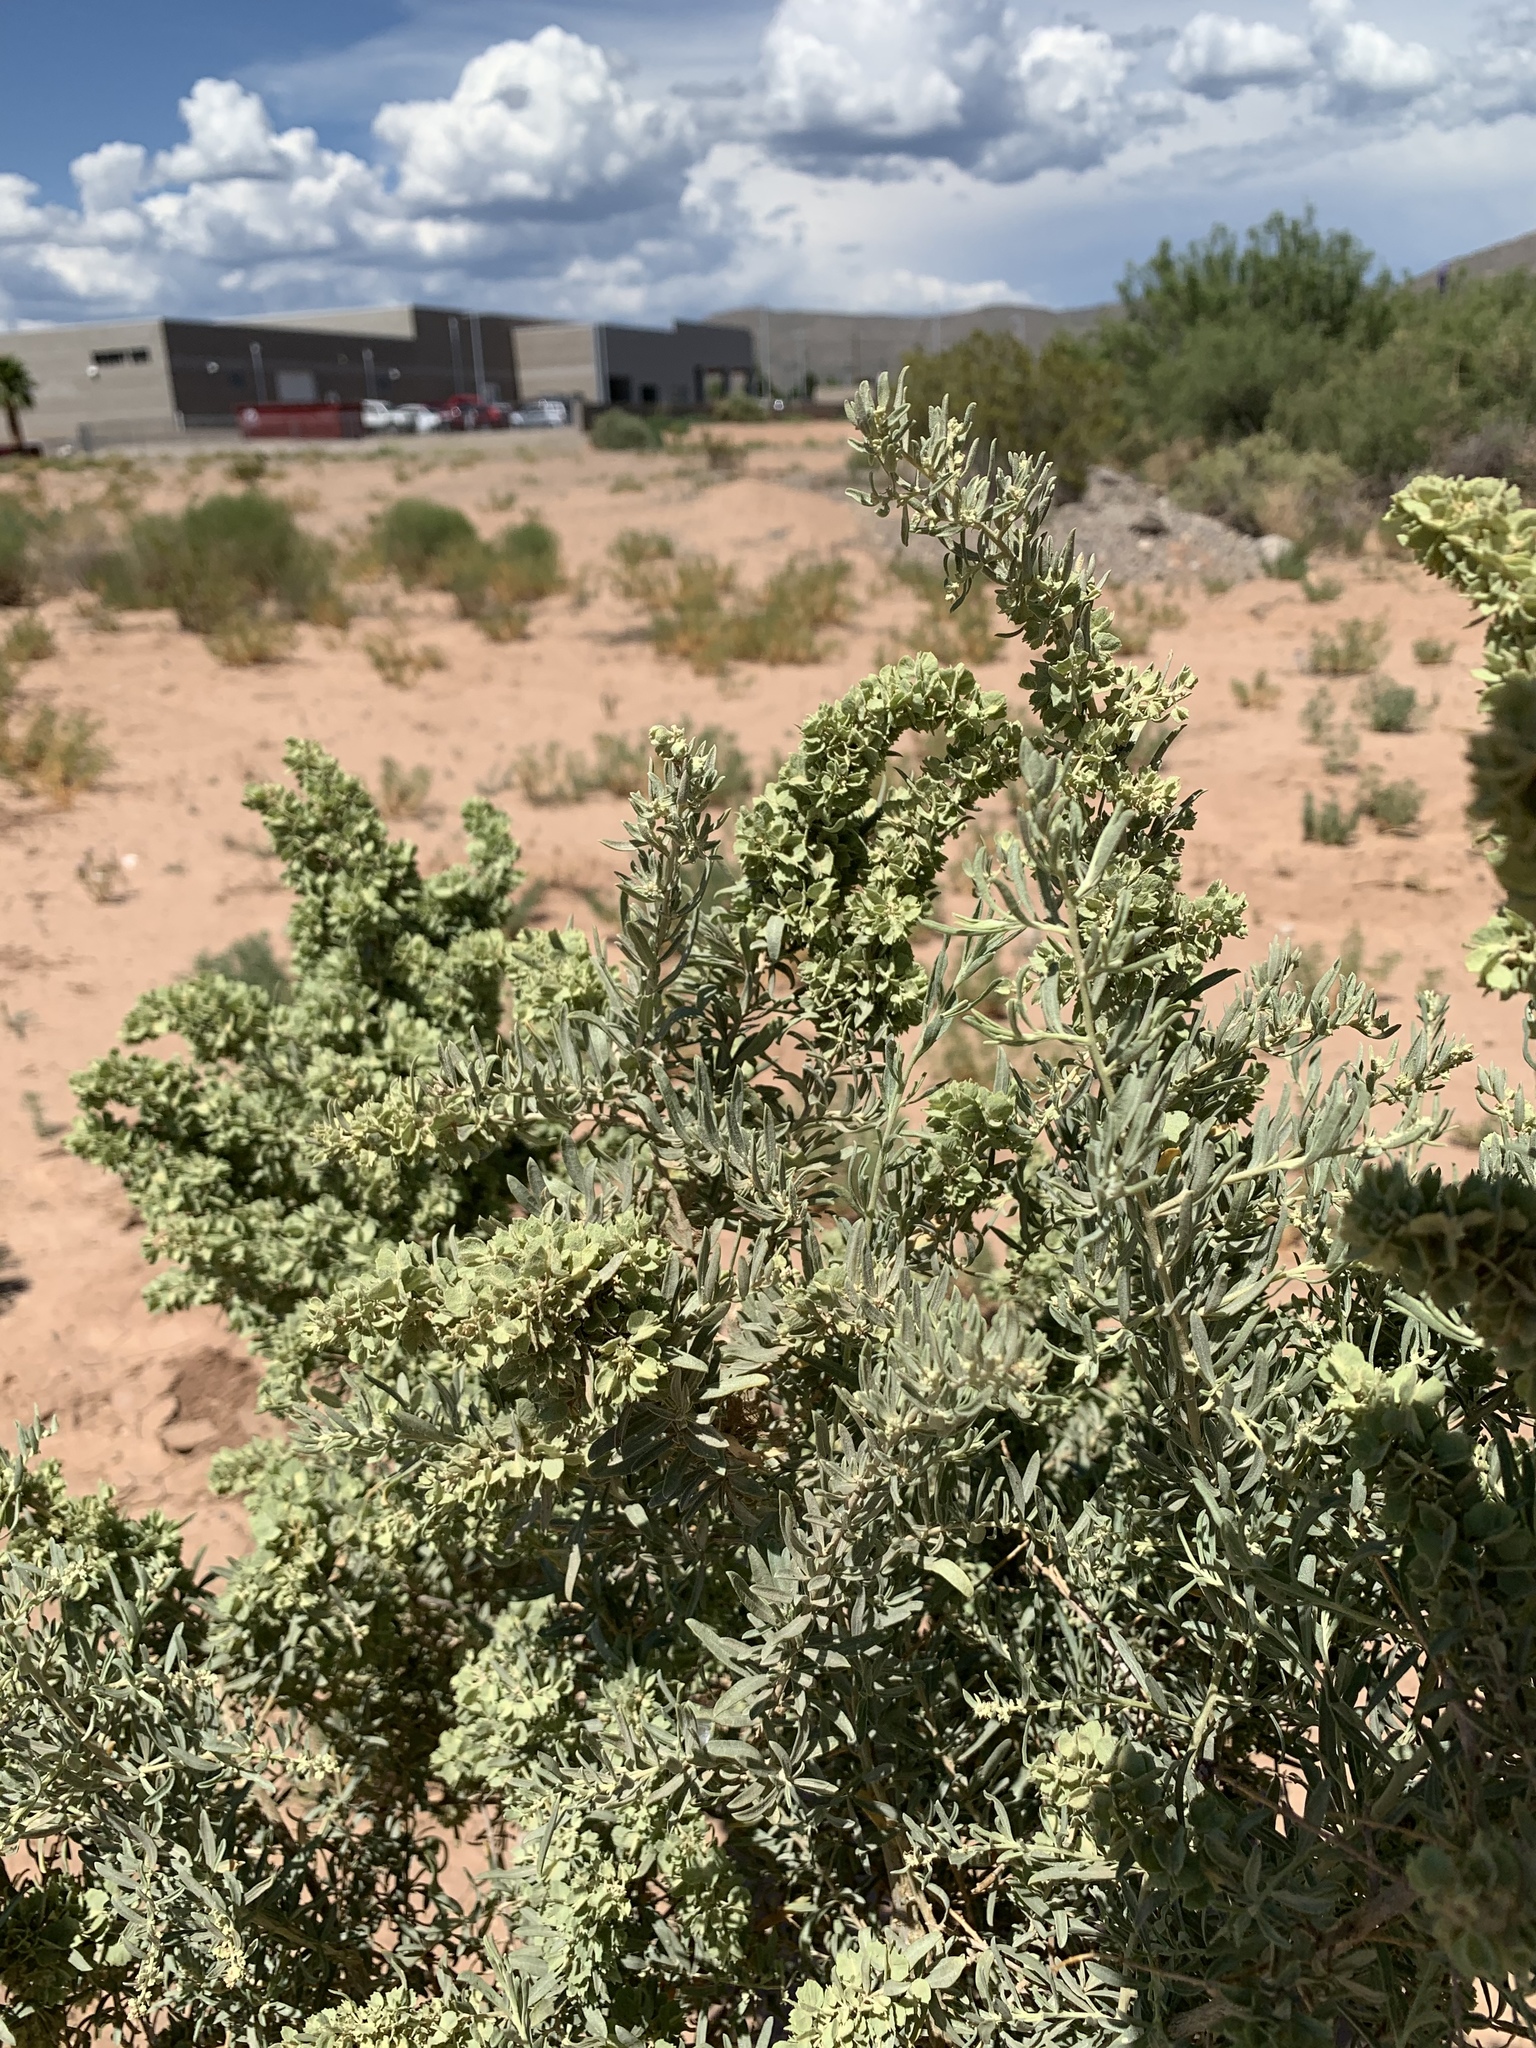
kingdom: Plantae
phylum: Tracheophyta
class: Magnoliopsida
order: Caryophyllales
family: Amaranthaceae
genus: Atriplex
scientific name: Atriplex canescens
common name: Four-wing saltbush
